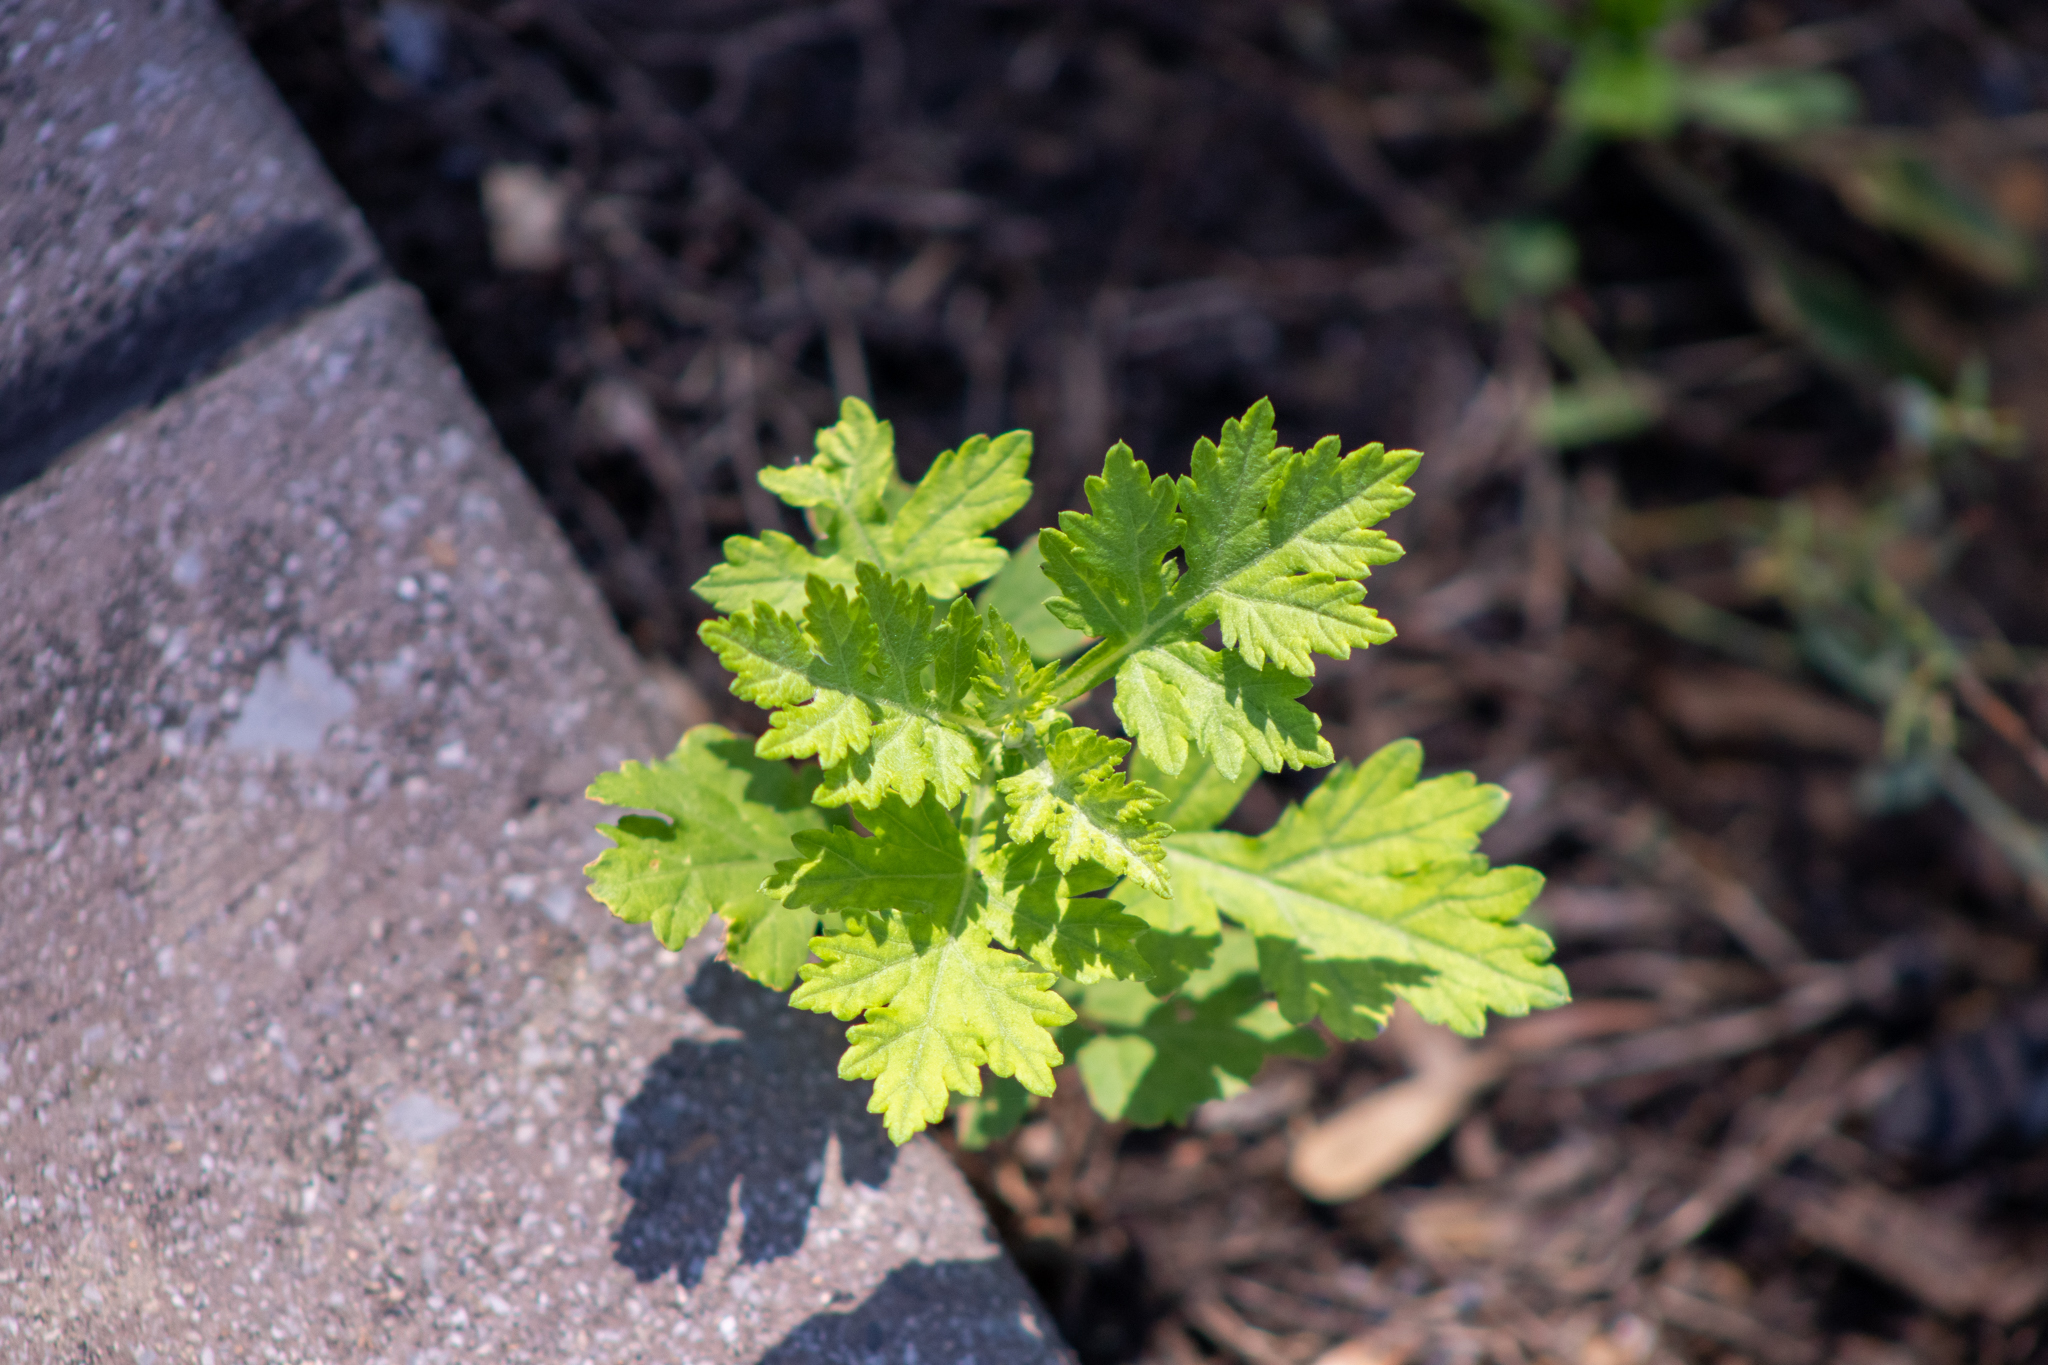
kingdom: Plantae
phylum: Tracheophyta
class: Magnoliopsida
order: Asterales
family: Asteraceae
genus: Tanacetum
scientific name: Tanacetum parthenium
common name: Feverfew
